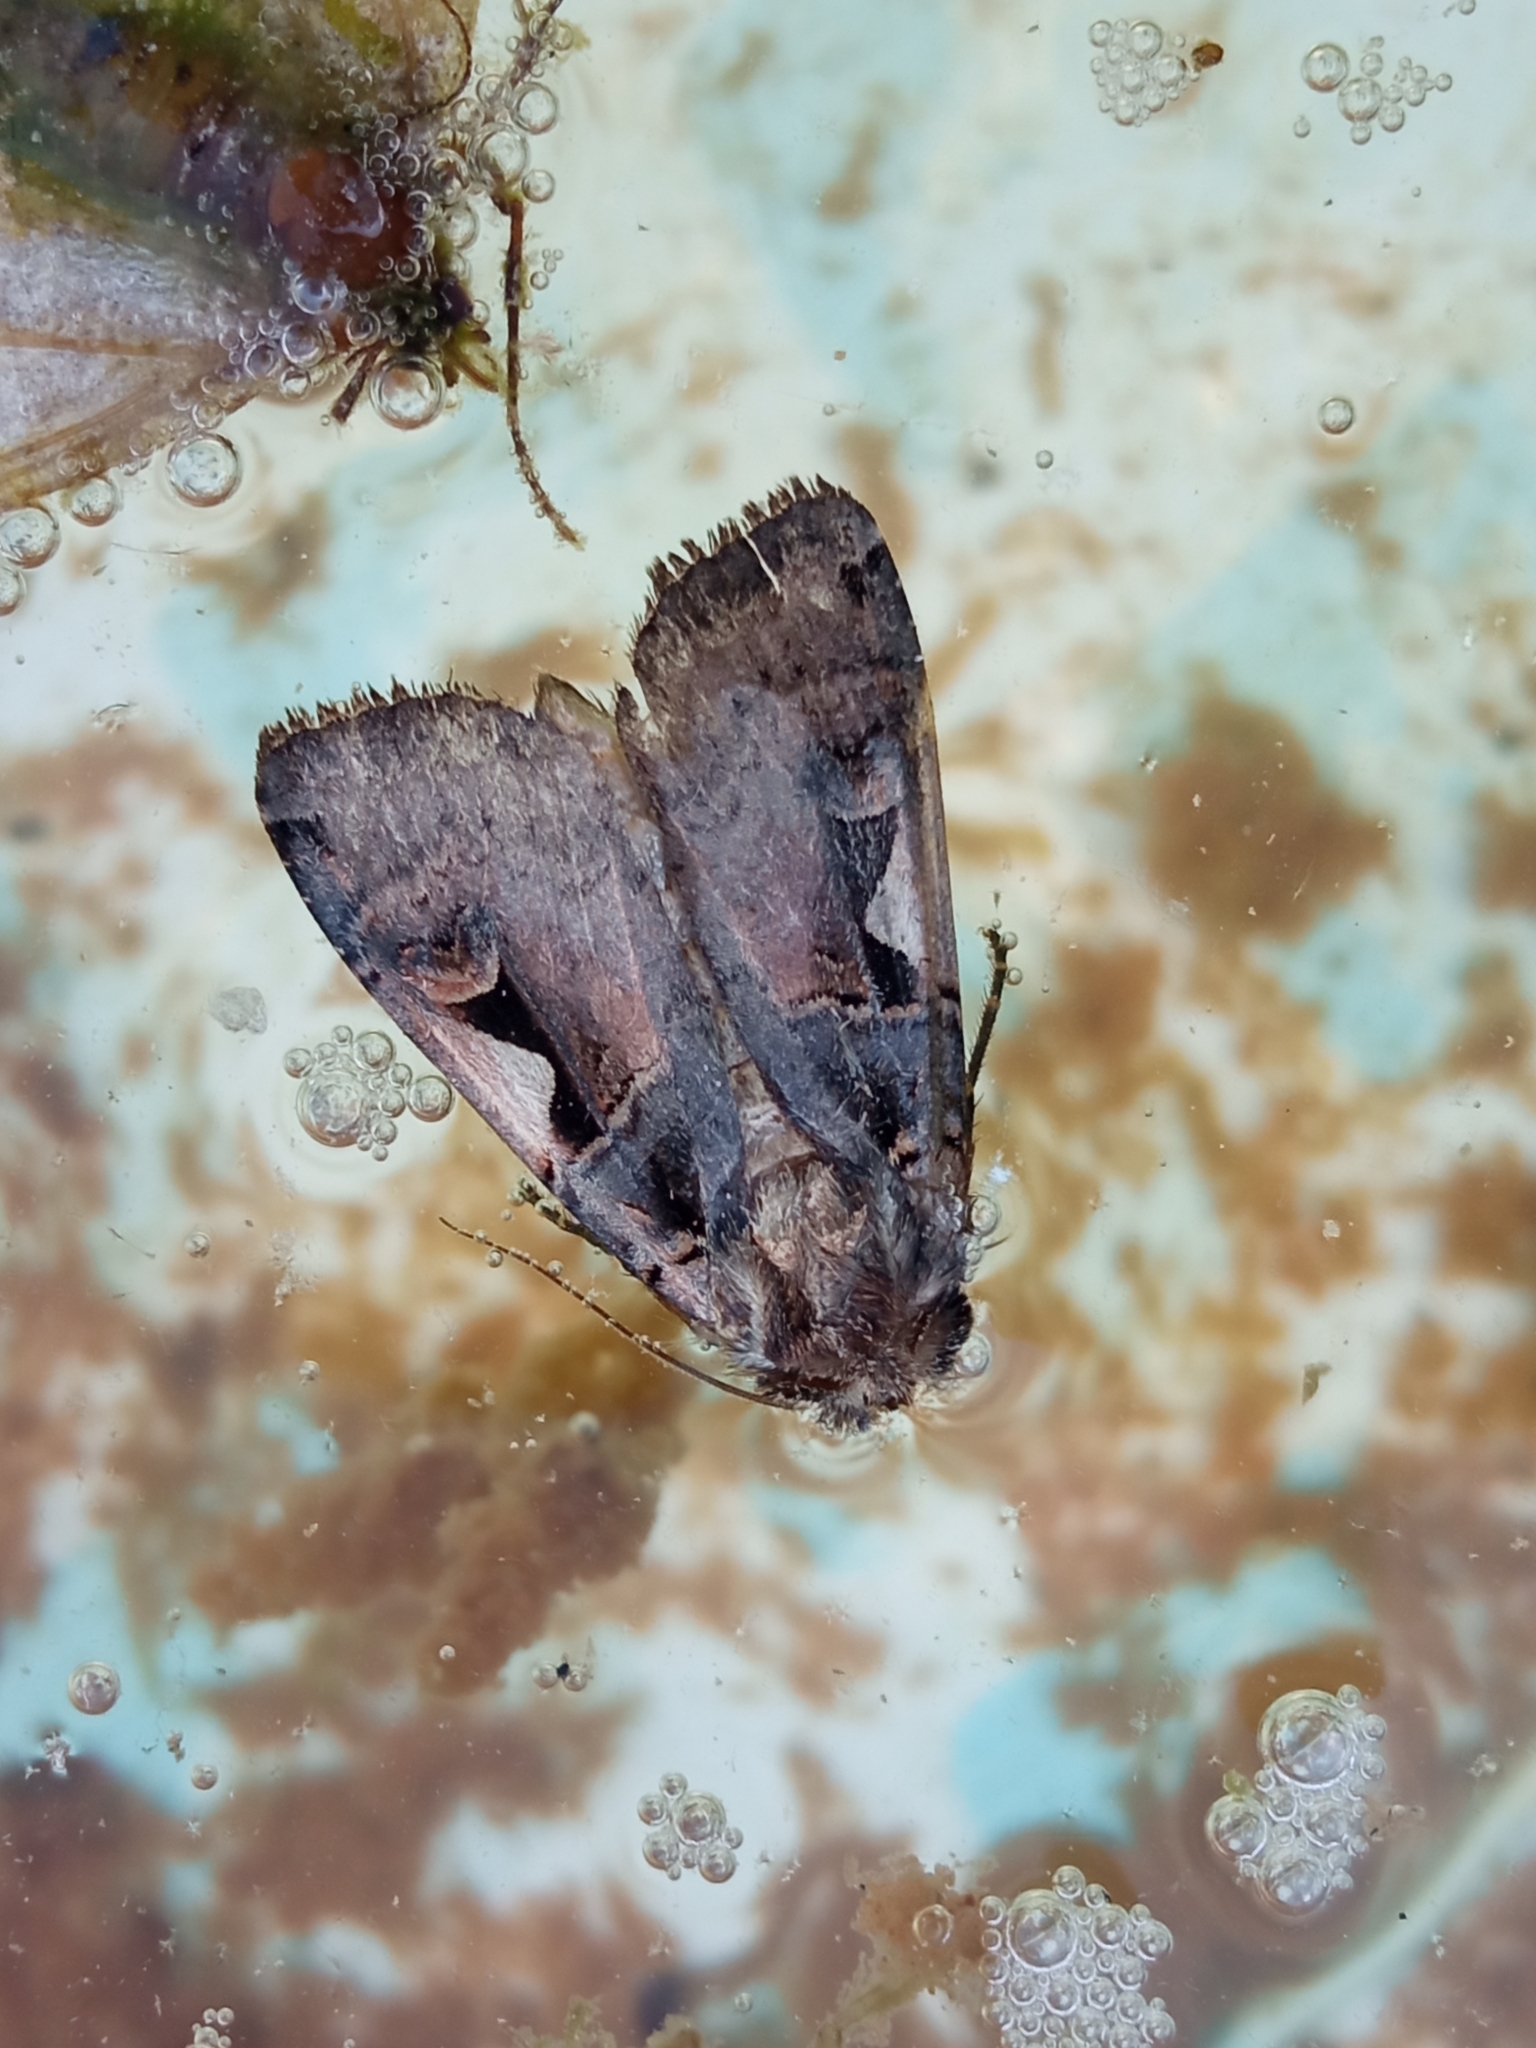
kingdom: Animalia
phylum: Arthropoda
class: Insecta
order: Lepidoptera
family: Noctuidae
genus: Xestia
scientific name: Xestia c-nigrum
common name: Setaceous hebrew character
